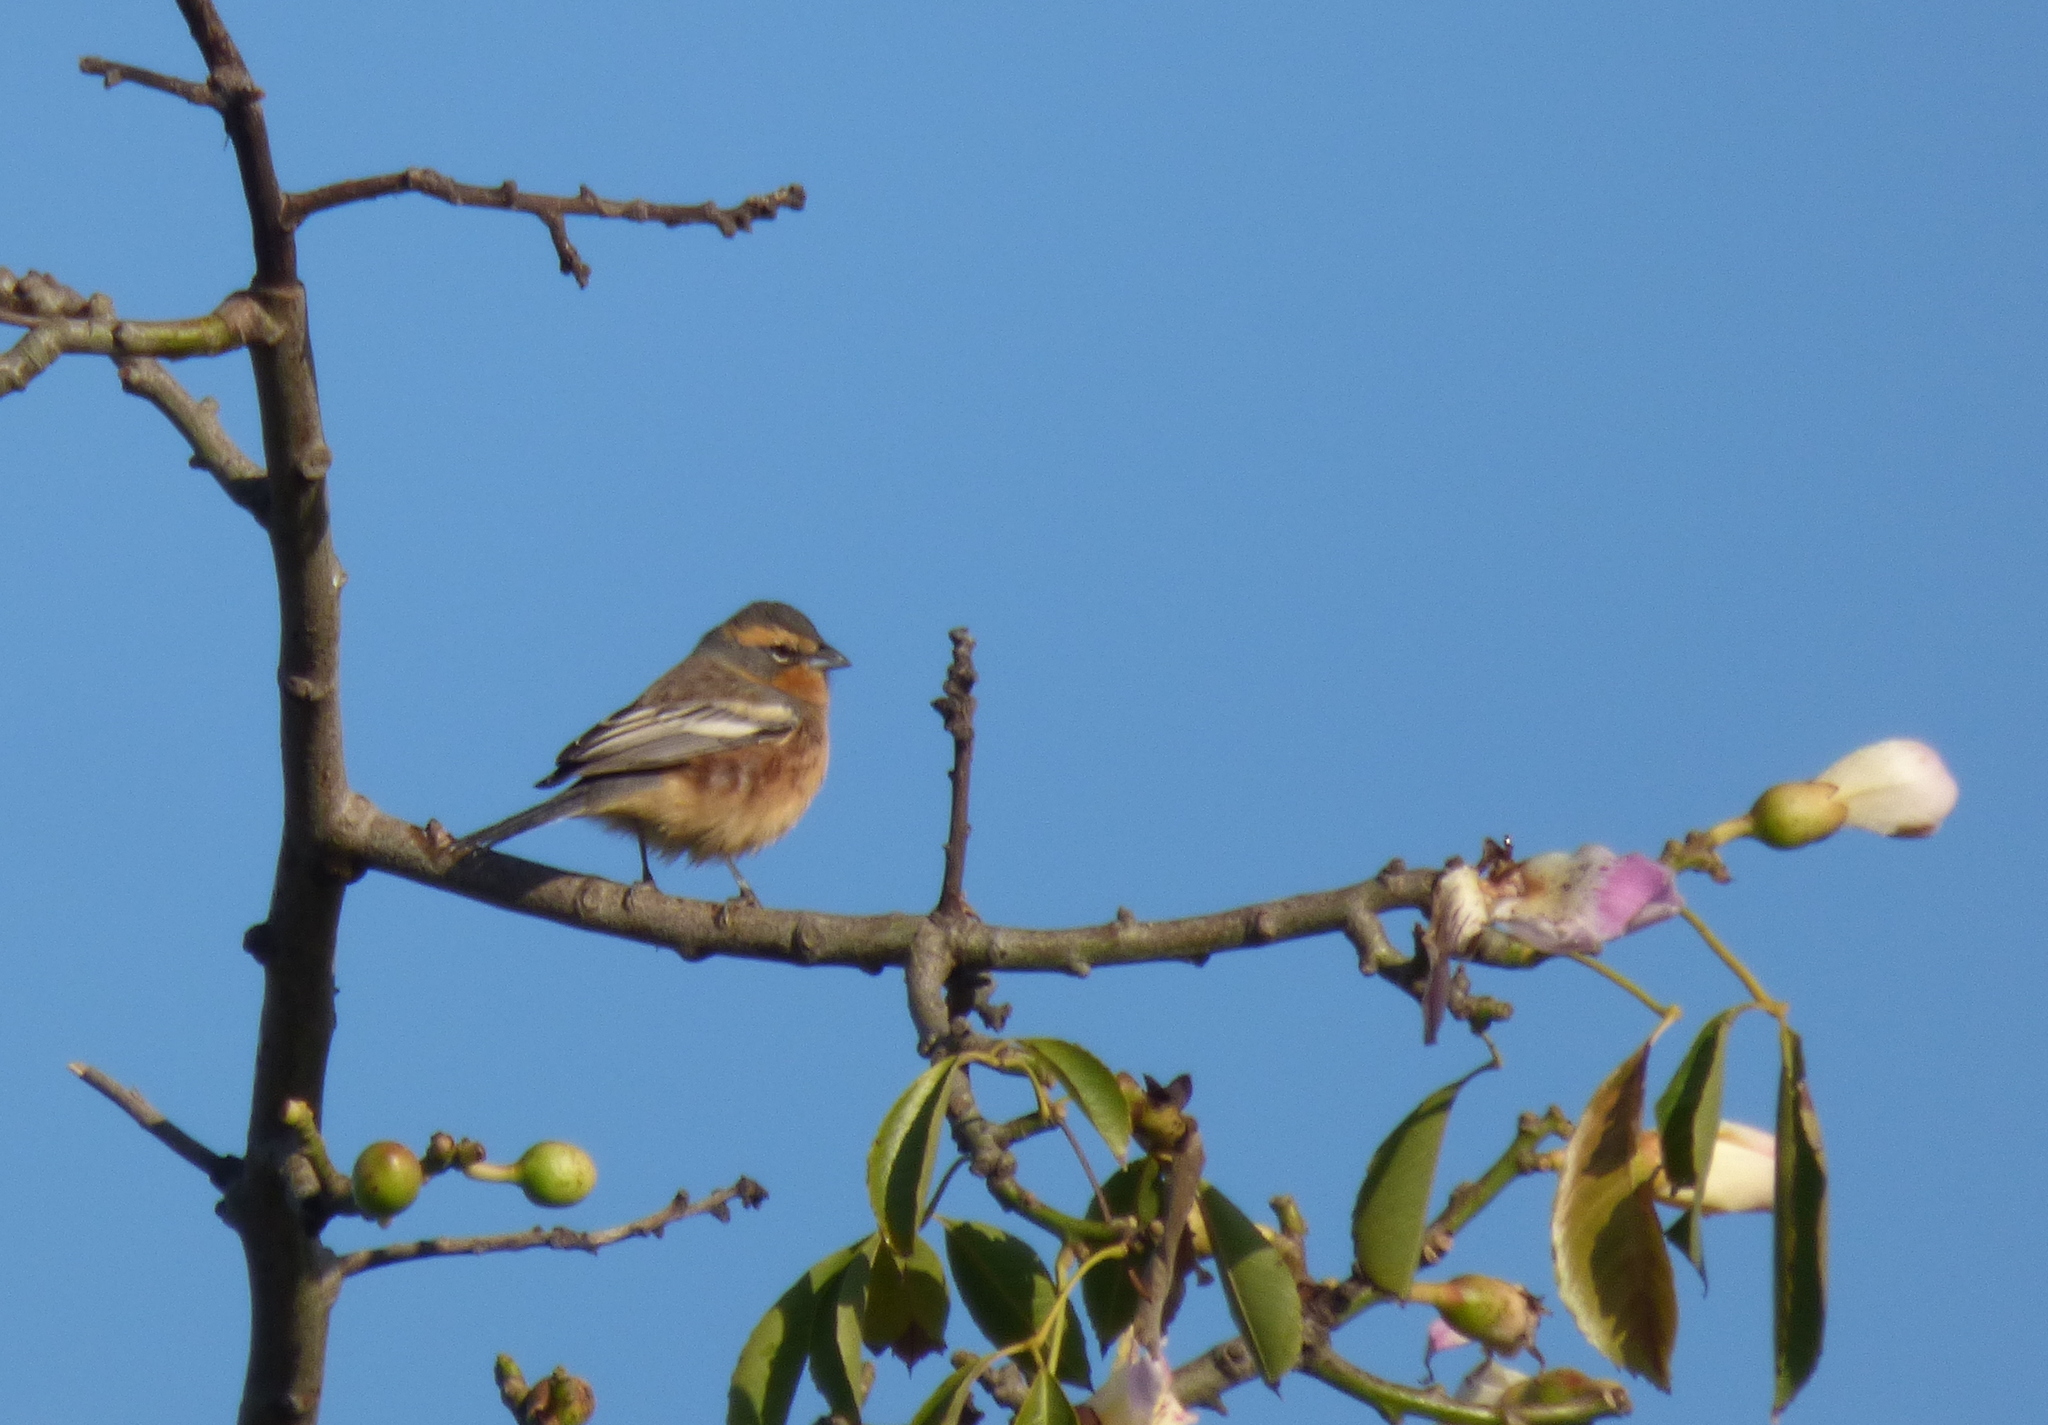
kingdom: Animalia
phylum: Chordata
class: Aves
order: Passeriformes
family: Thraupidae
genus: Poospiza
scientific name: Poospiza ornata
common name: Cinnamon warbling finch
